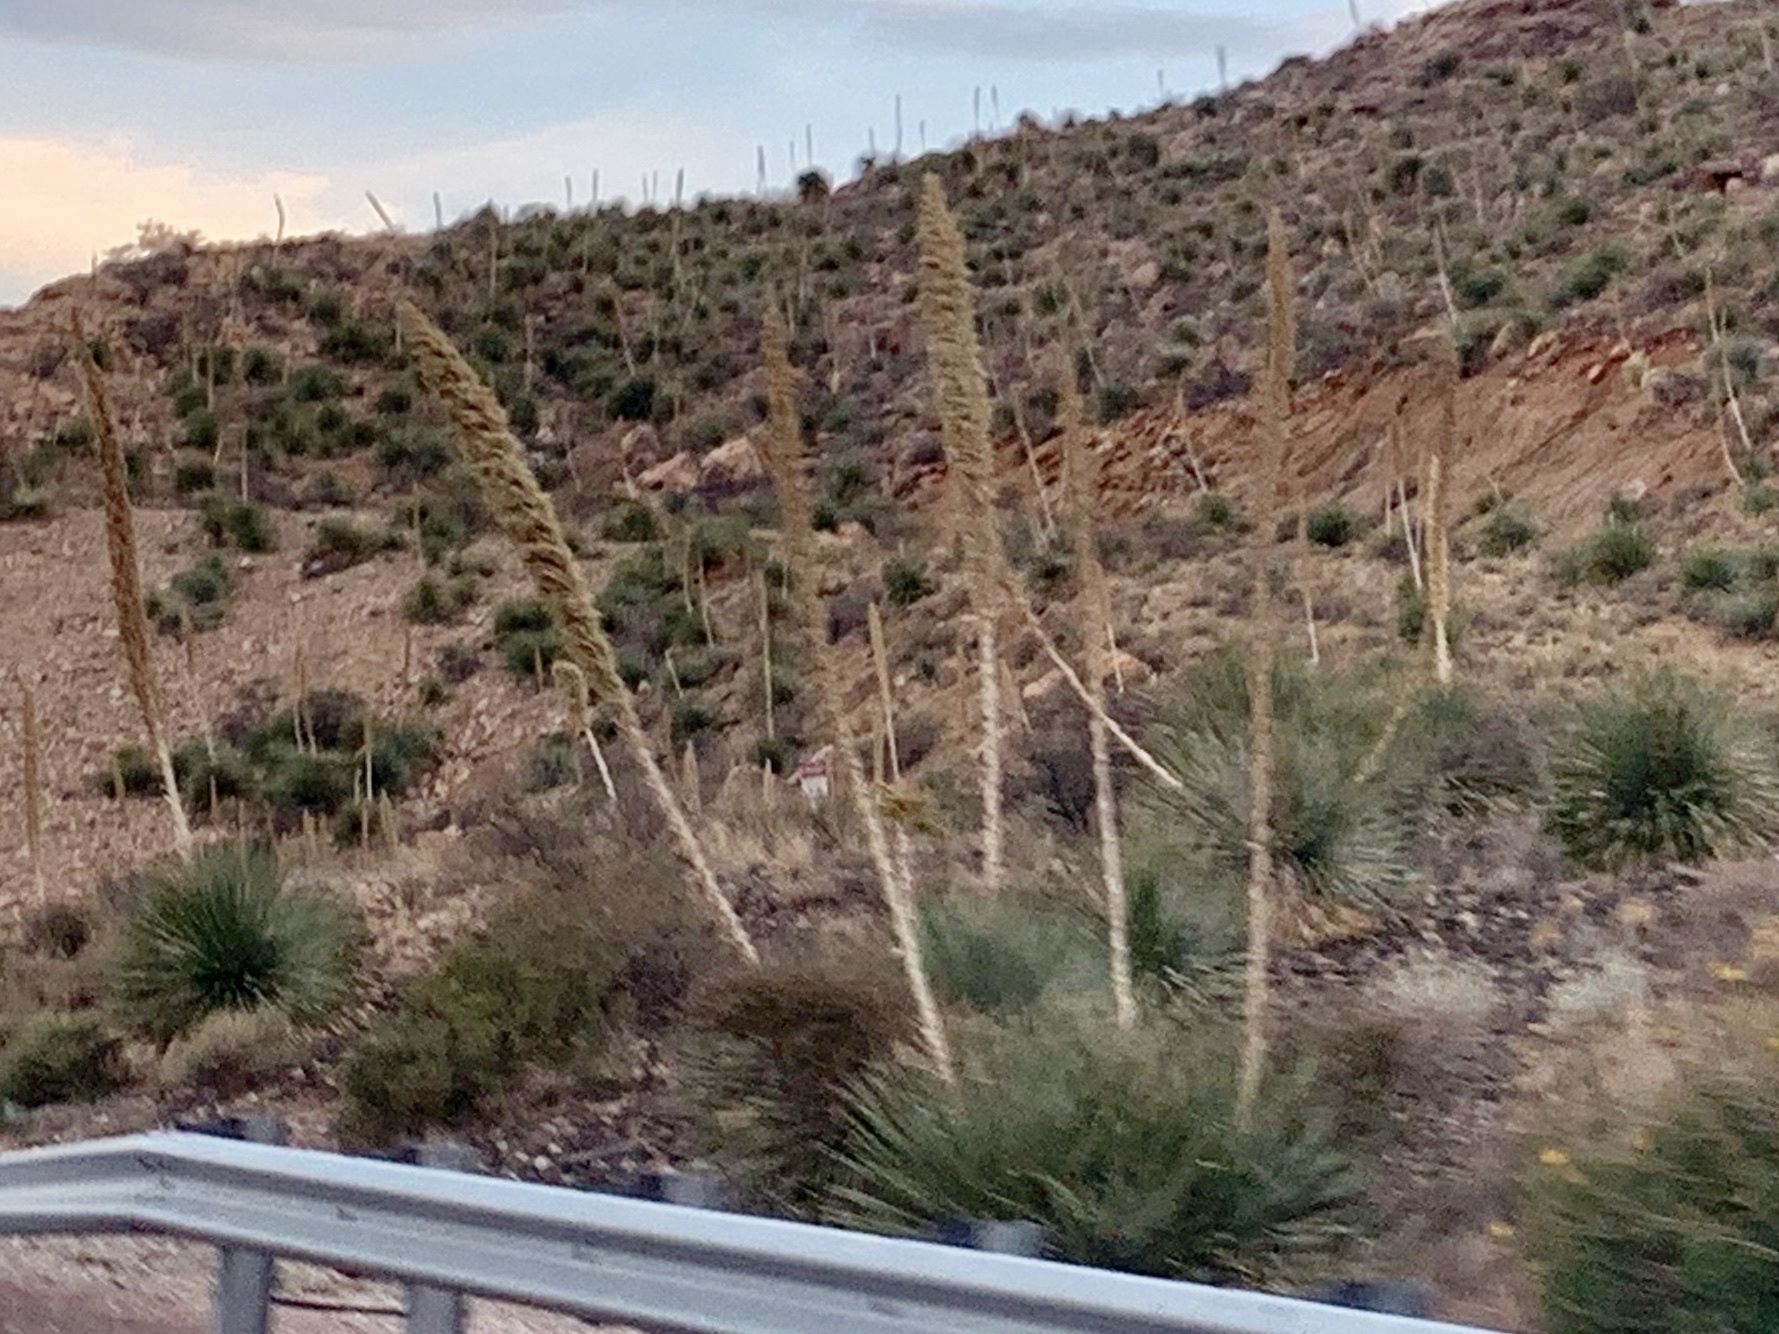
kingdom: Plantae
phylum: Tracheophyta
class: Liliopsida
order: Asparagales
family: Asparagaceae
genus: Dasylirion
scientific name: Dasylirion wheeleri
